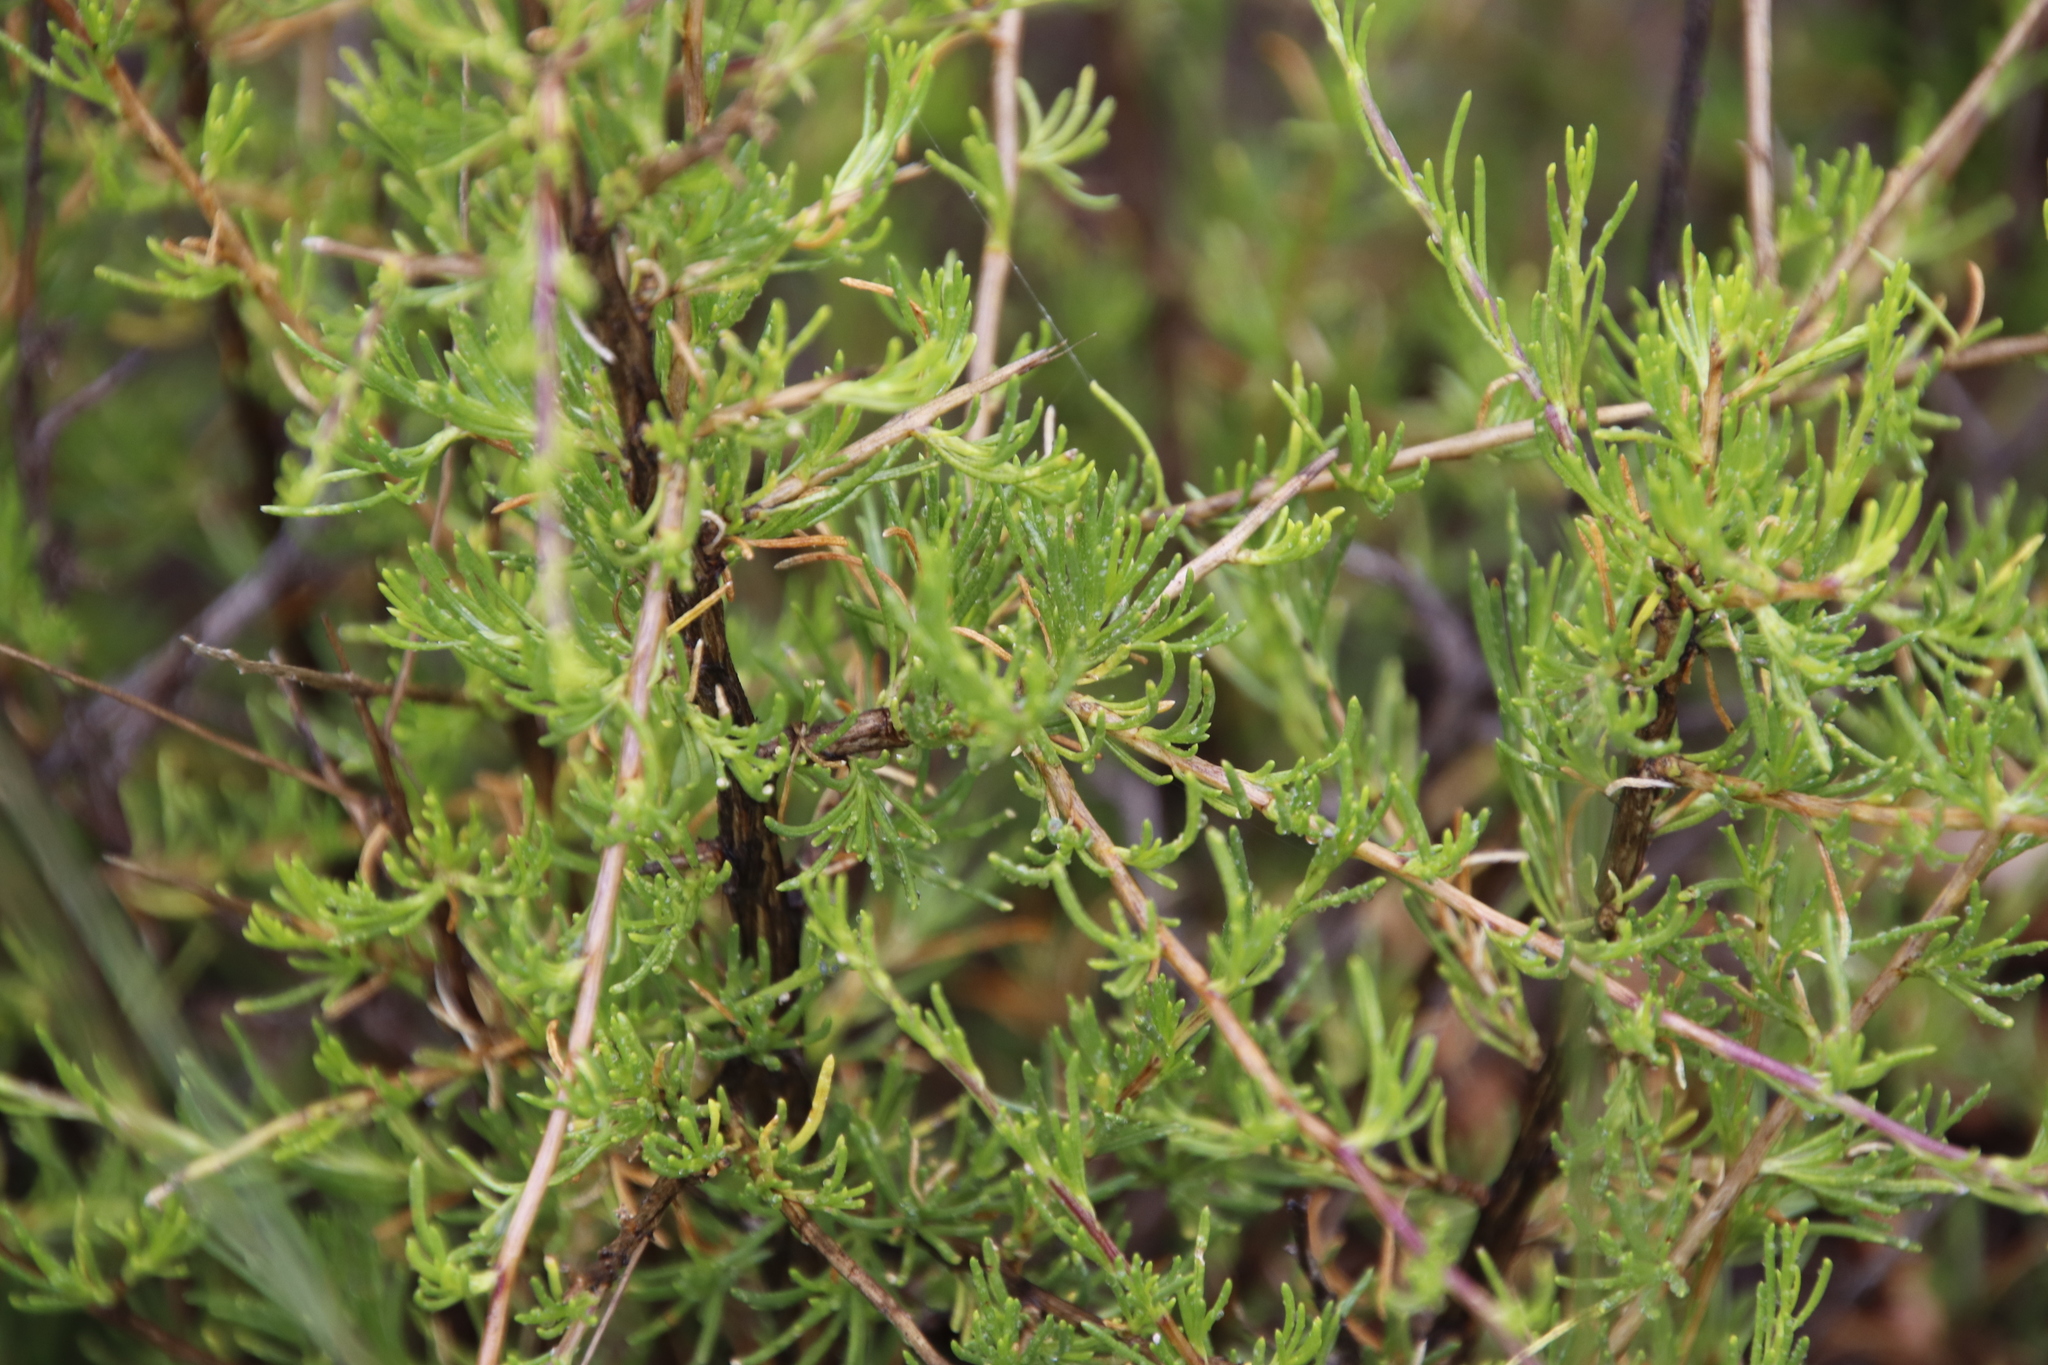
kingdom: Plantae
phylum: Tracheophyta
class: Magnoliopsida
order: Asterales
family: Asteraceae
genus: Felicia
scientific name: Felicia filifolia
